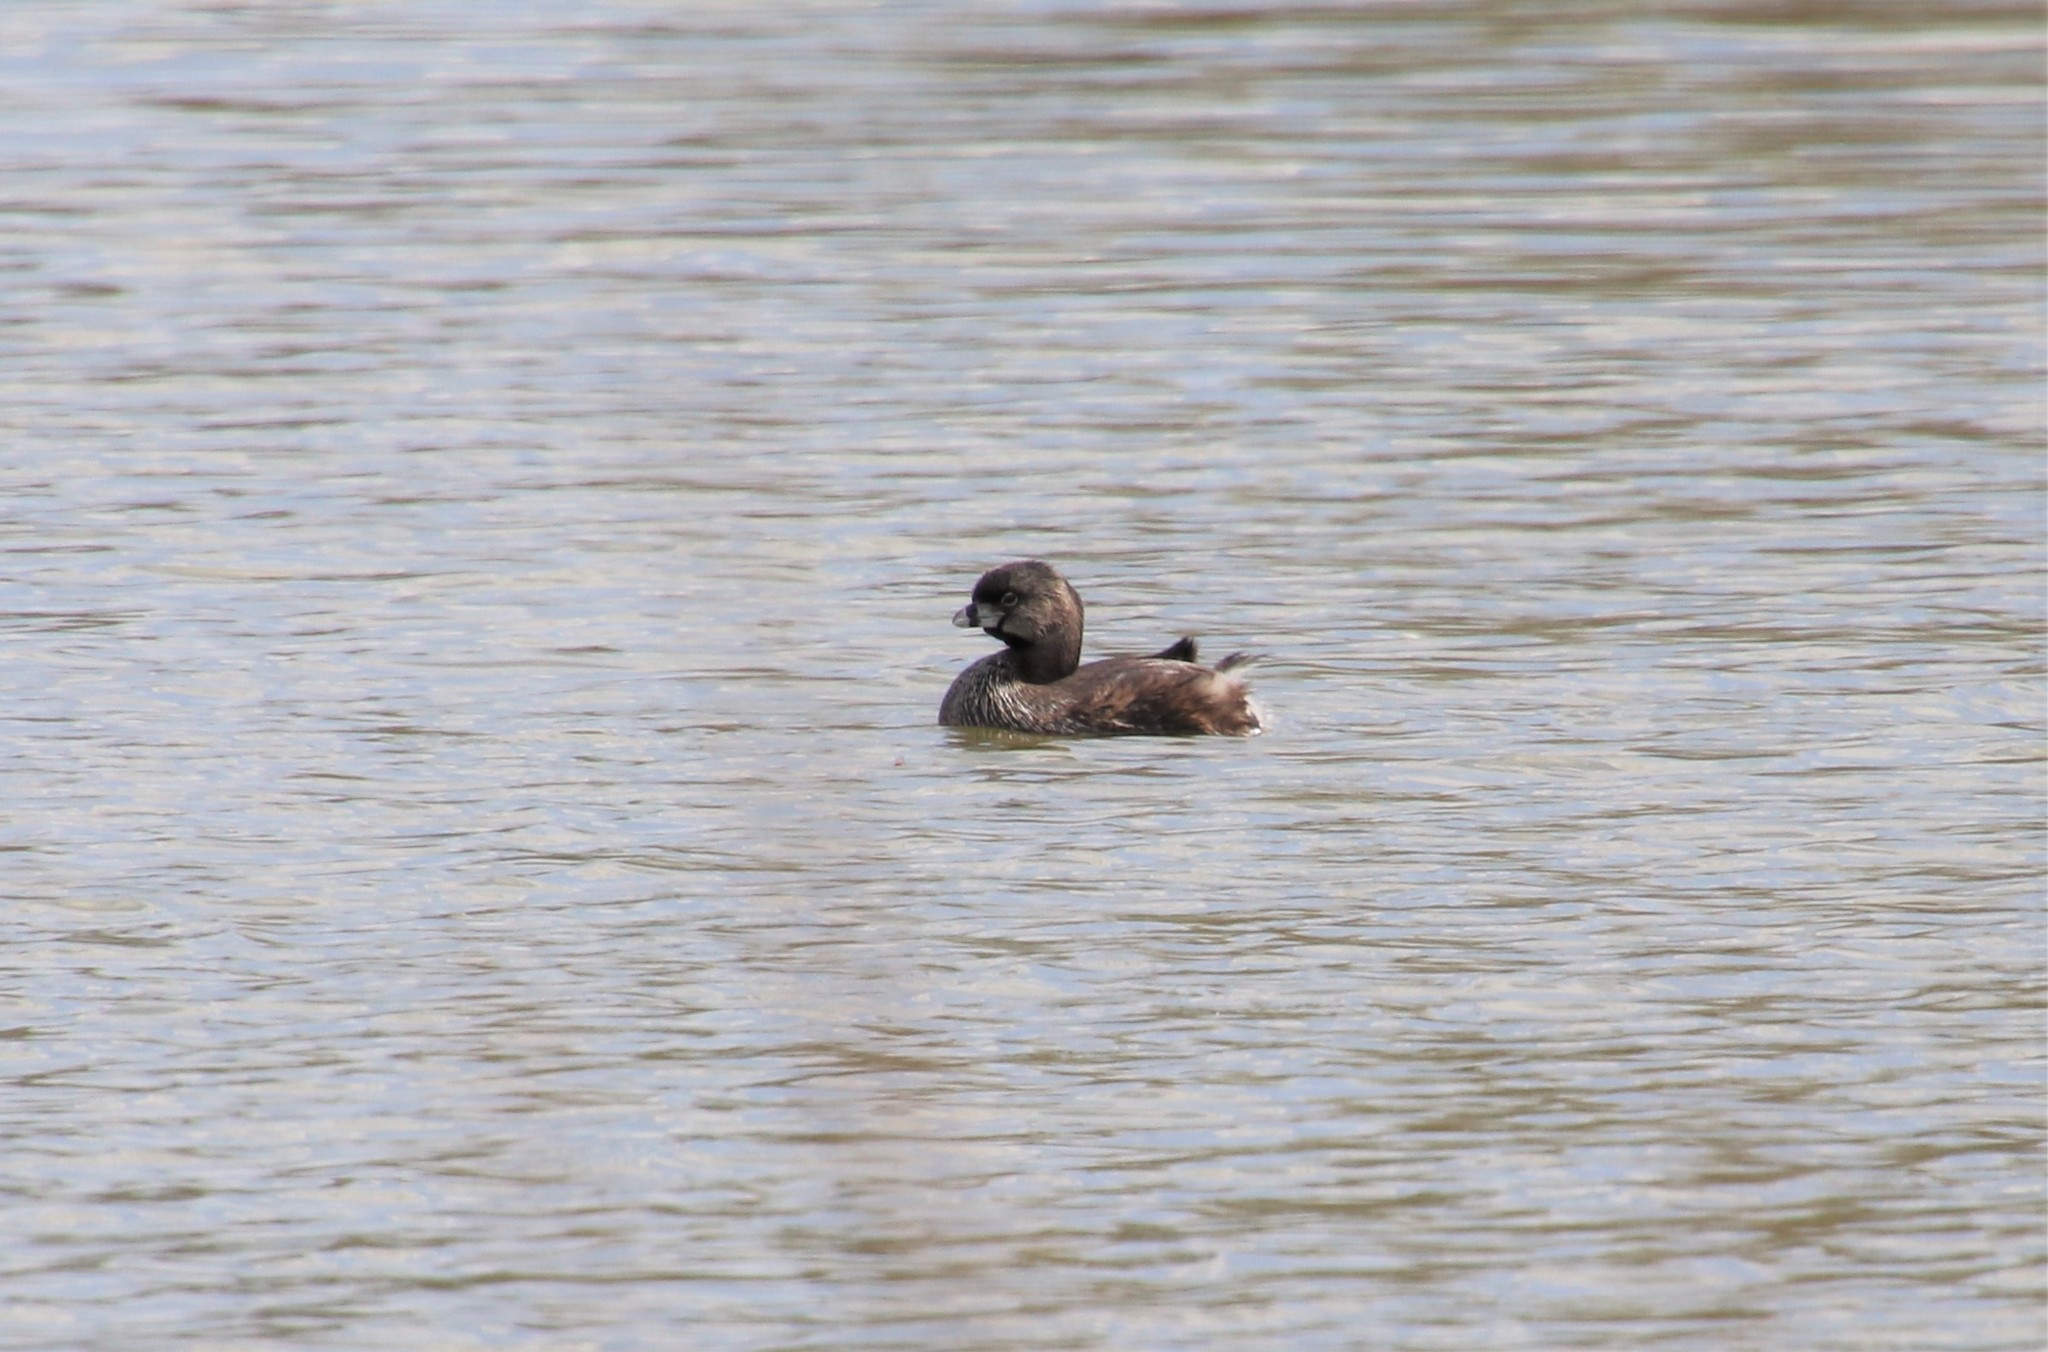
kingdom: Animalia
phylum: Chordata
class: Aves
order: Podicipediformes
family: Podicipedidae
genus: Podilymbus
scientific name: Podilymbus podiceps
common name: Pied-billed grebe
